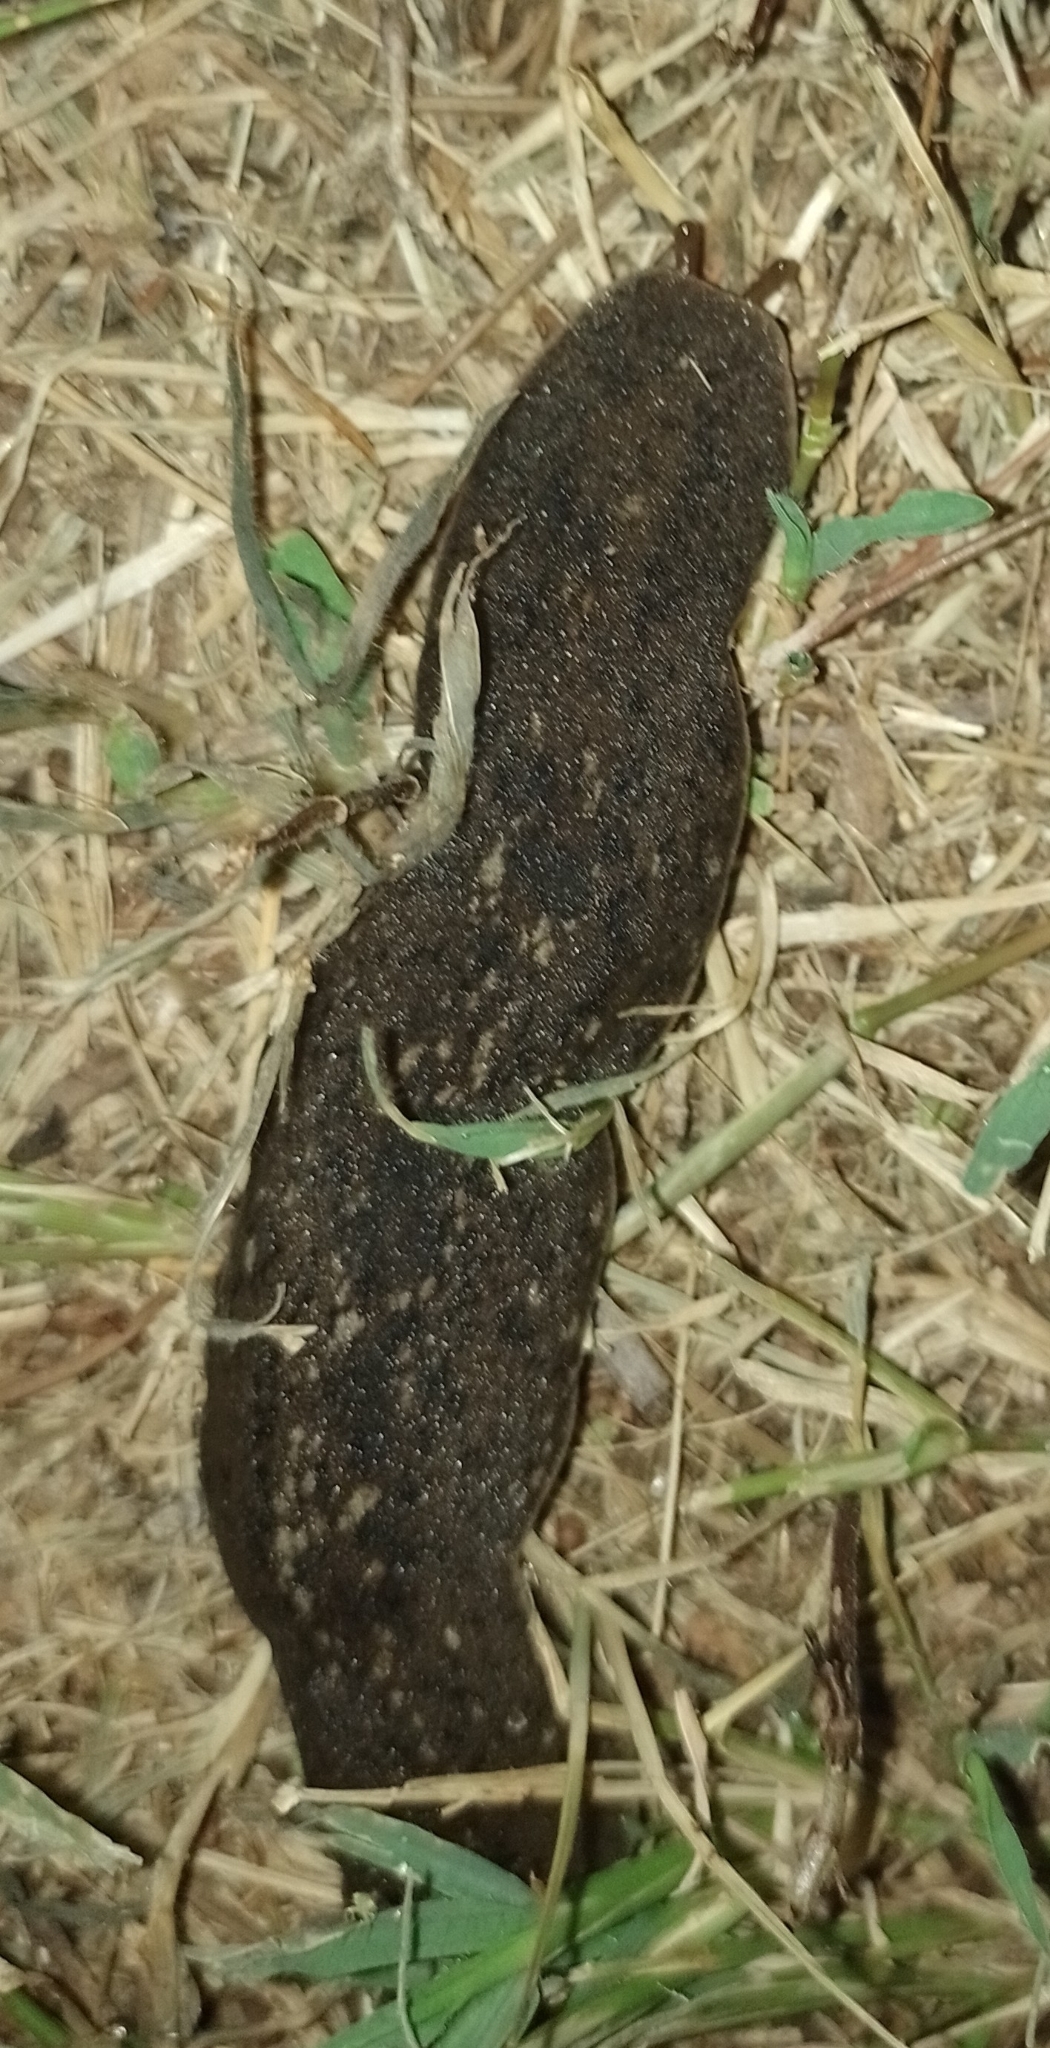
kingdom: Animalia
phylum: Mollusca
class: Gastropoda
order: Systellommatophora
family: Veronicellidae
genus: Phyllocaulis
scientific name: Phyllocaulis soleiformis
